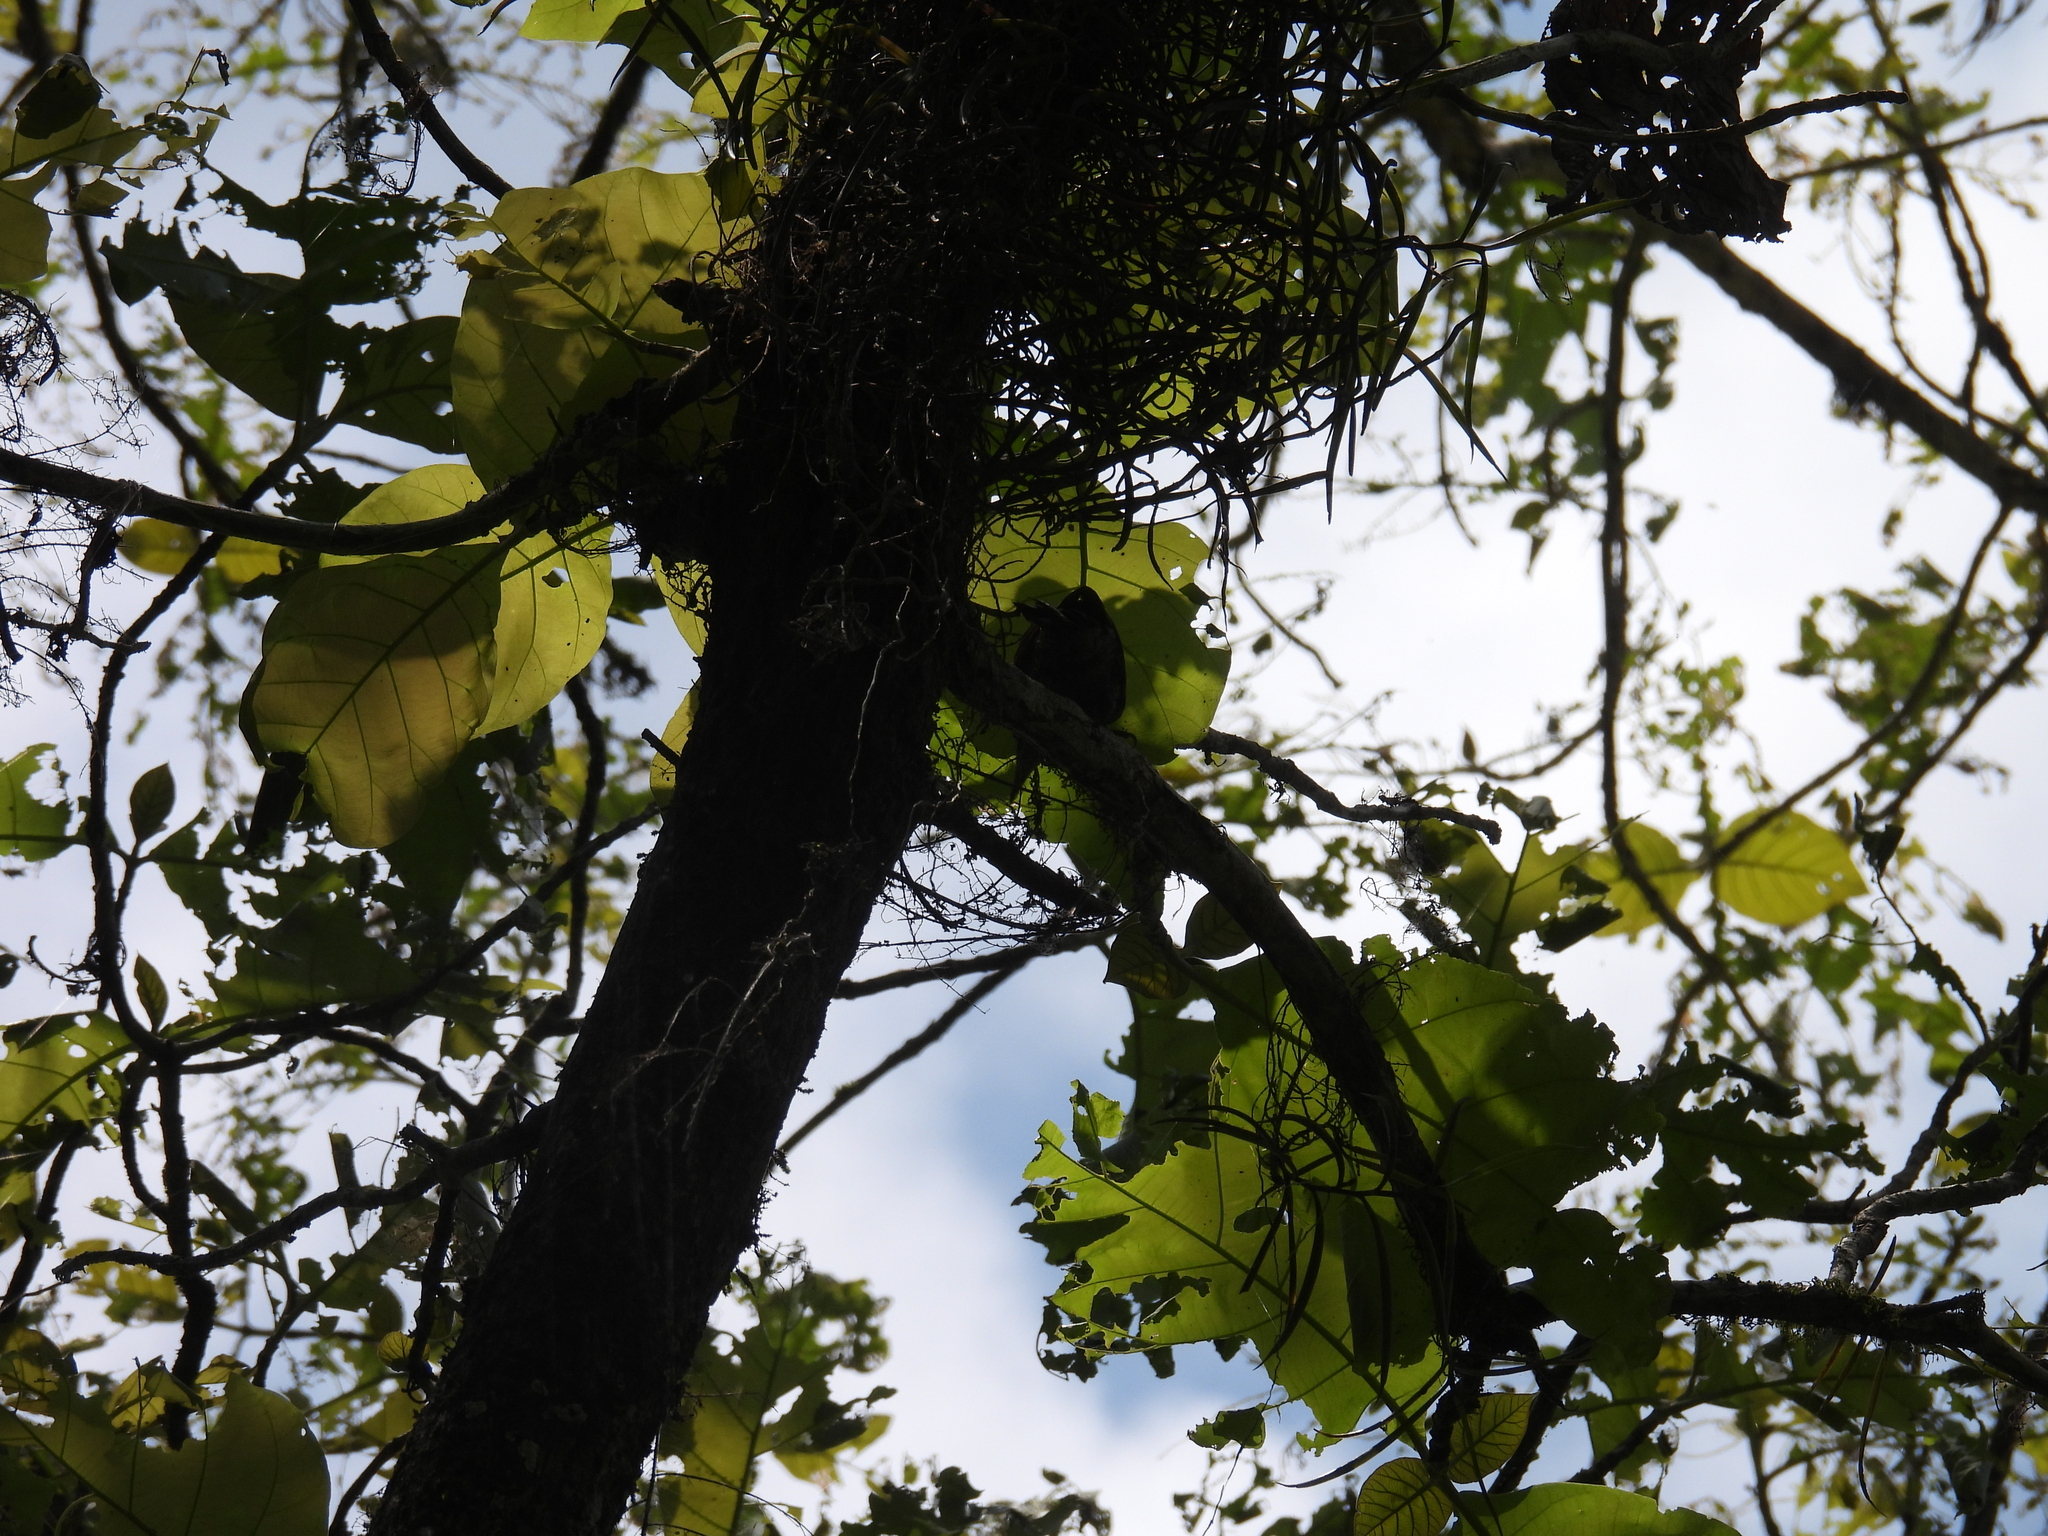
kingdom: Animalia
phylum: Chordata
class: Aves
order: Piciformes
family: Picidae
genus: Picus
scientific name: Picus chlorolophus
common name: Lesser yellownape
